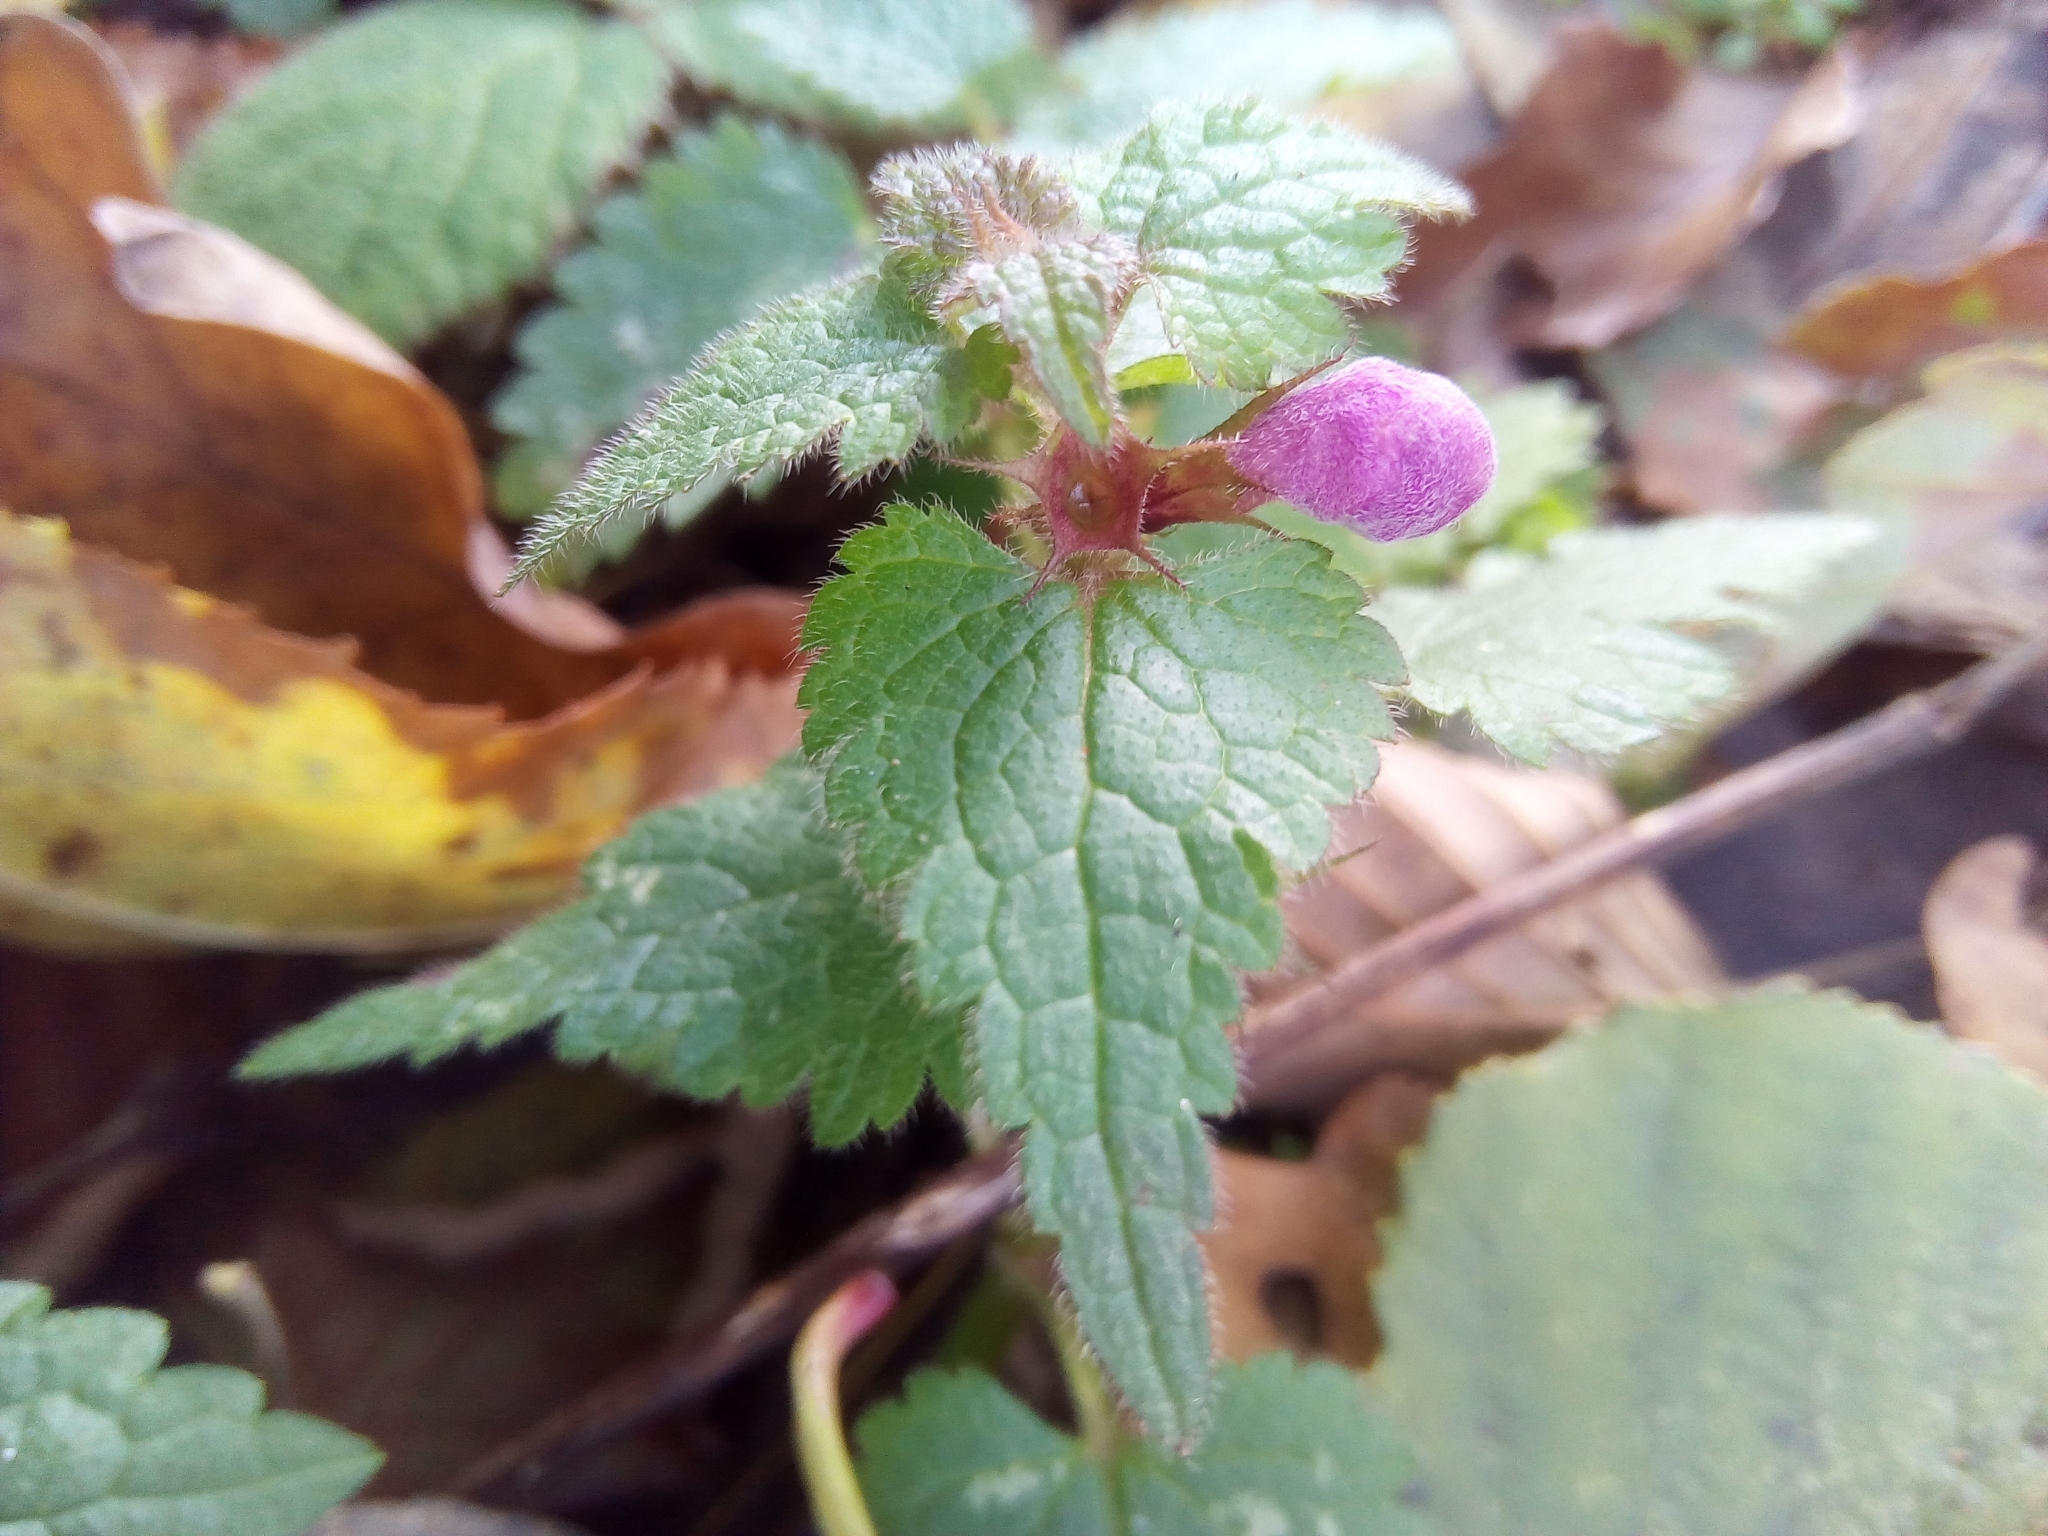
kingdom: Plantae
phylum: Tracheophyta
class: Magnoliopsida
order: Lamiales
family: Lamiaceae
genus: Lamium
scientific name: Lamium maculatum
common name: Spotted dead-nettle
